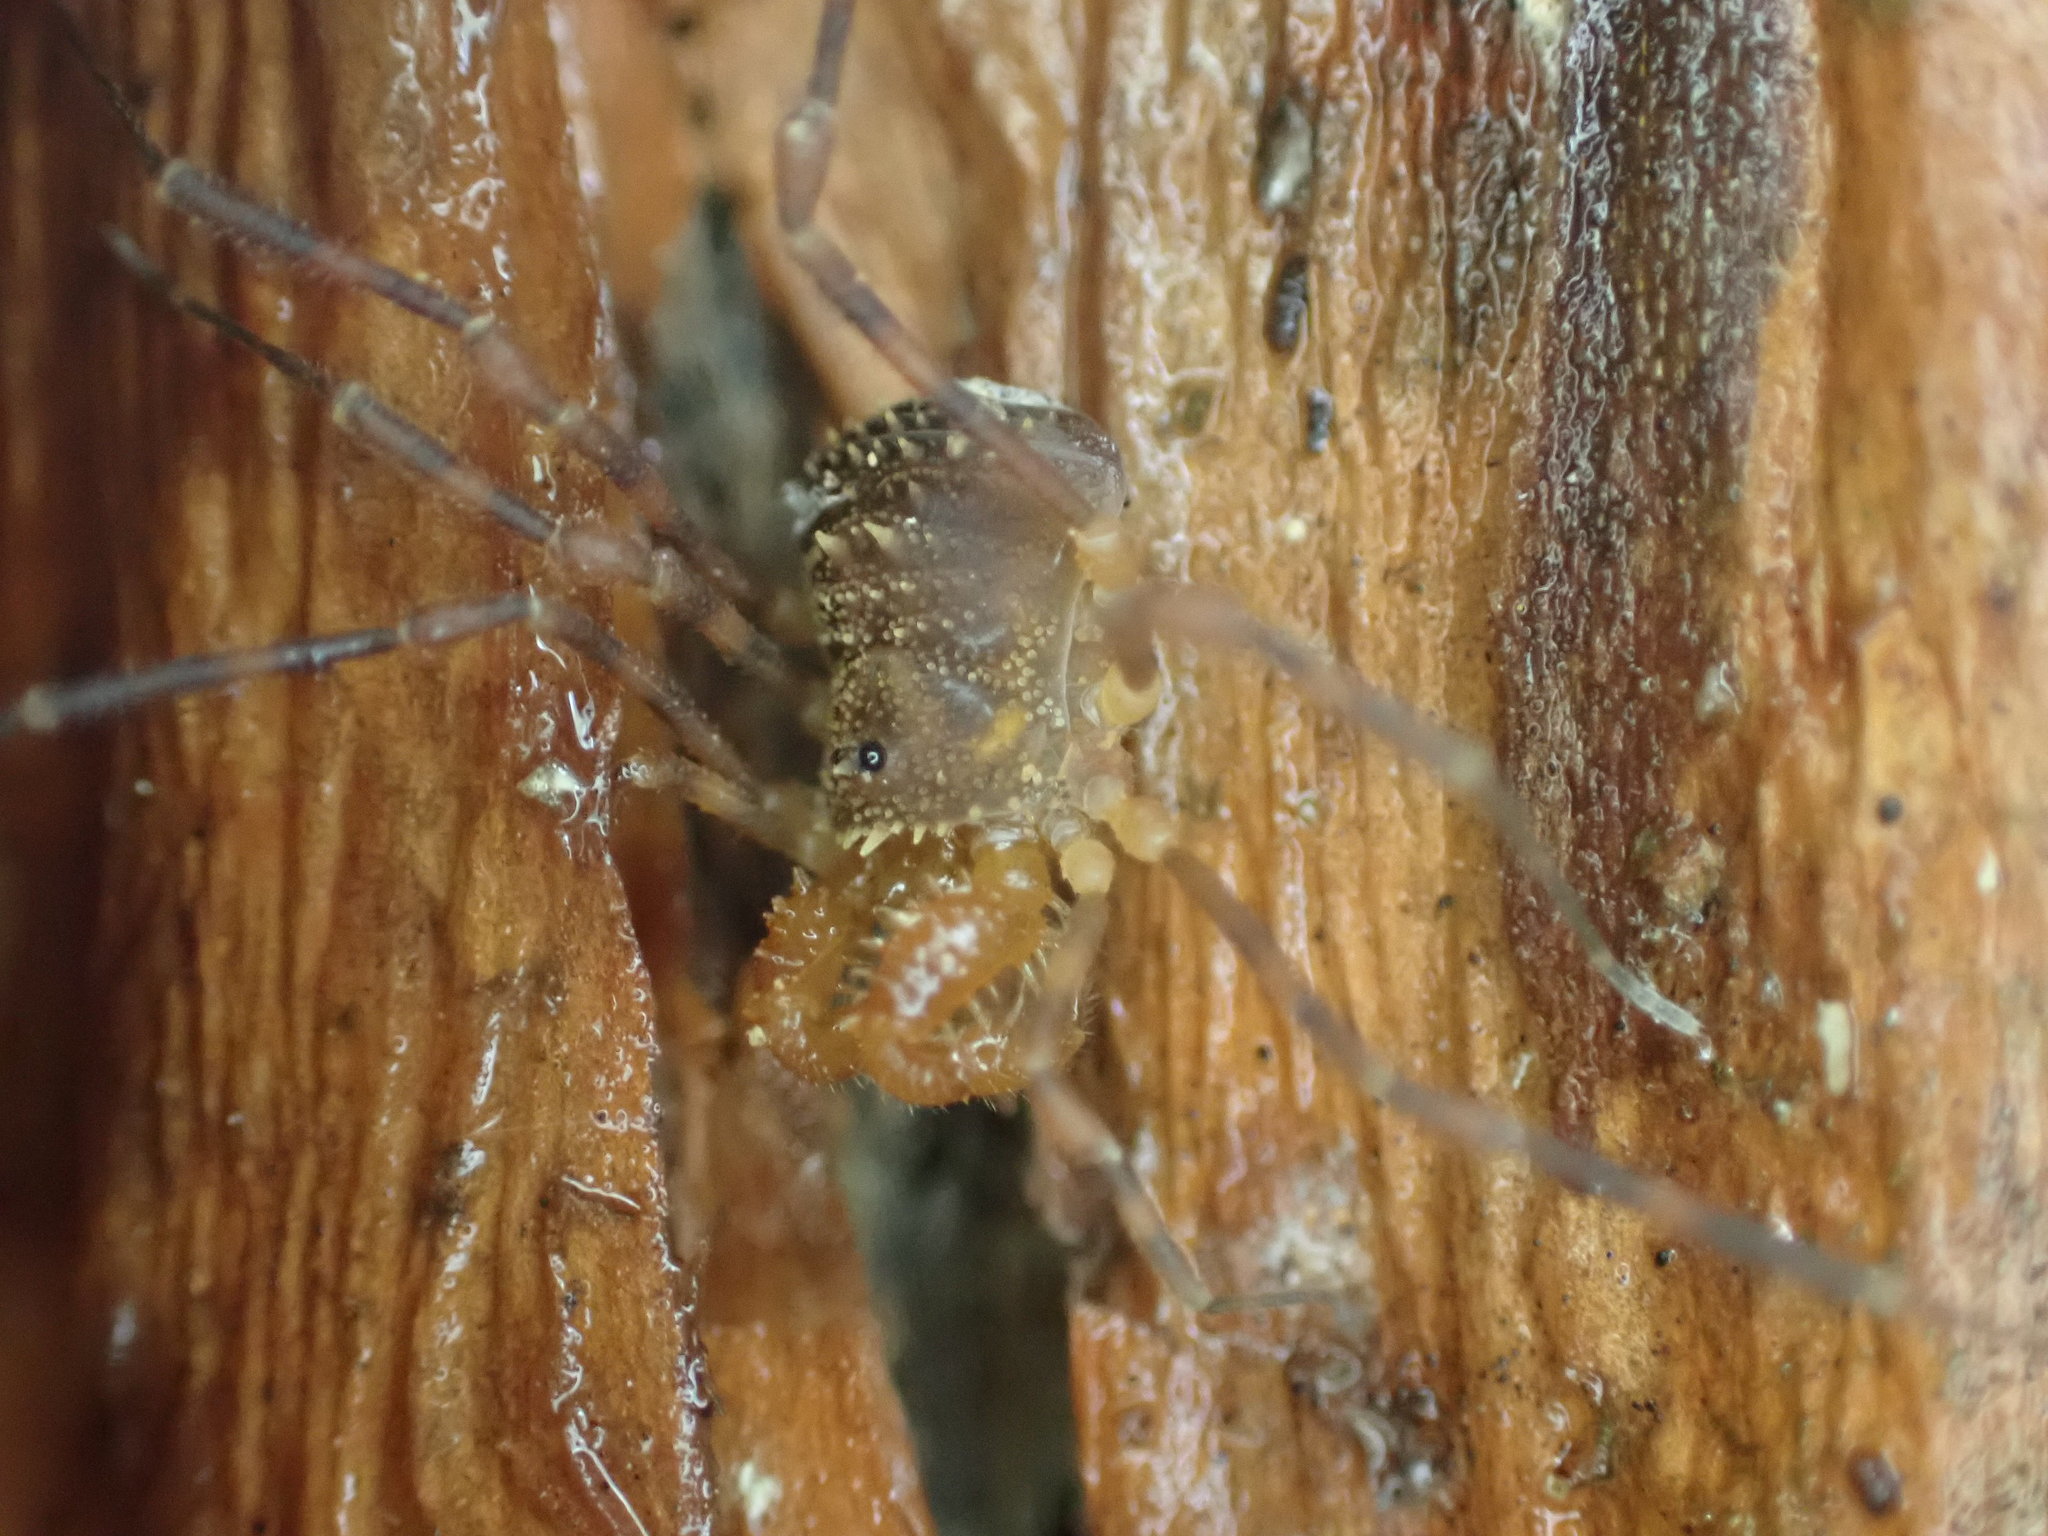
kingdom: Animalia
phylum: Arthropoda
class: Arachnida
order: Opiliones
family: Triaenonychidae
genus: Prasma
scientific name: Prasma tuberculata
